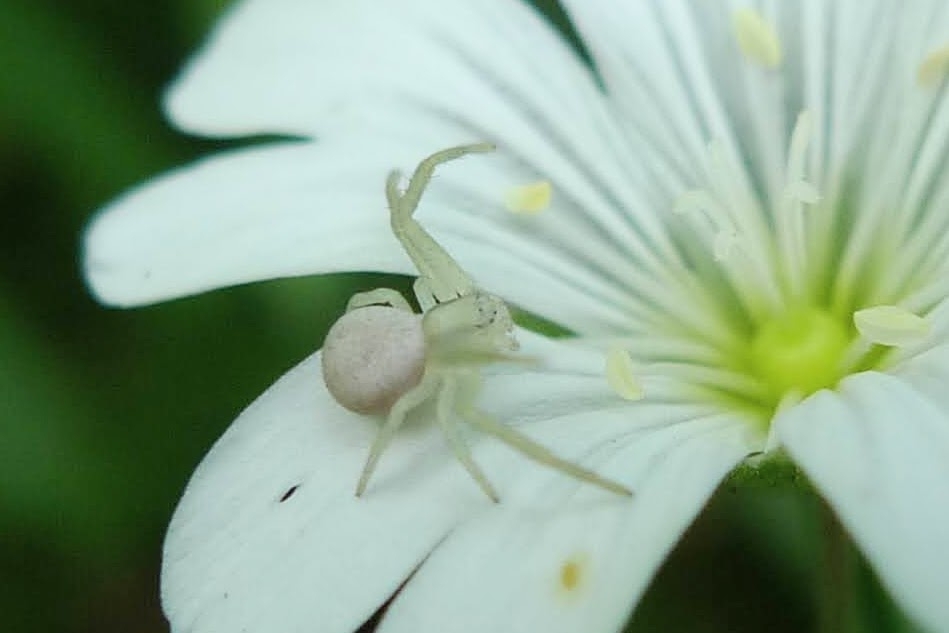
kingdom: Animalia
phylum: Arthropoda
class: Arachnida
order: Araneae
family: Thomisidae
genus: Misumena
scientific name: Misumena vatia
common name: Goldenrod crab spider
